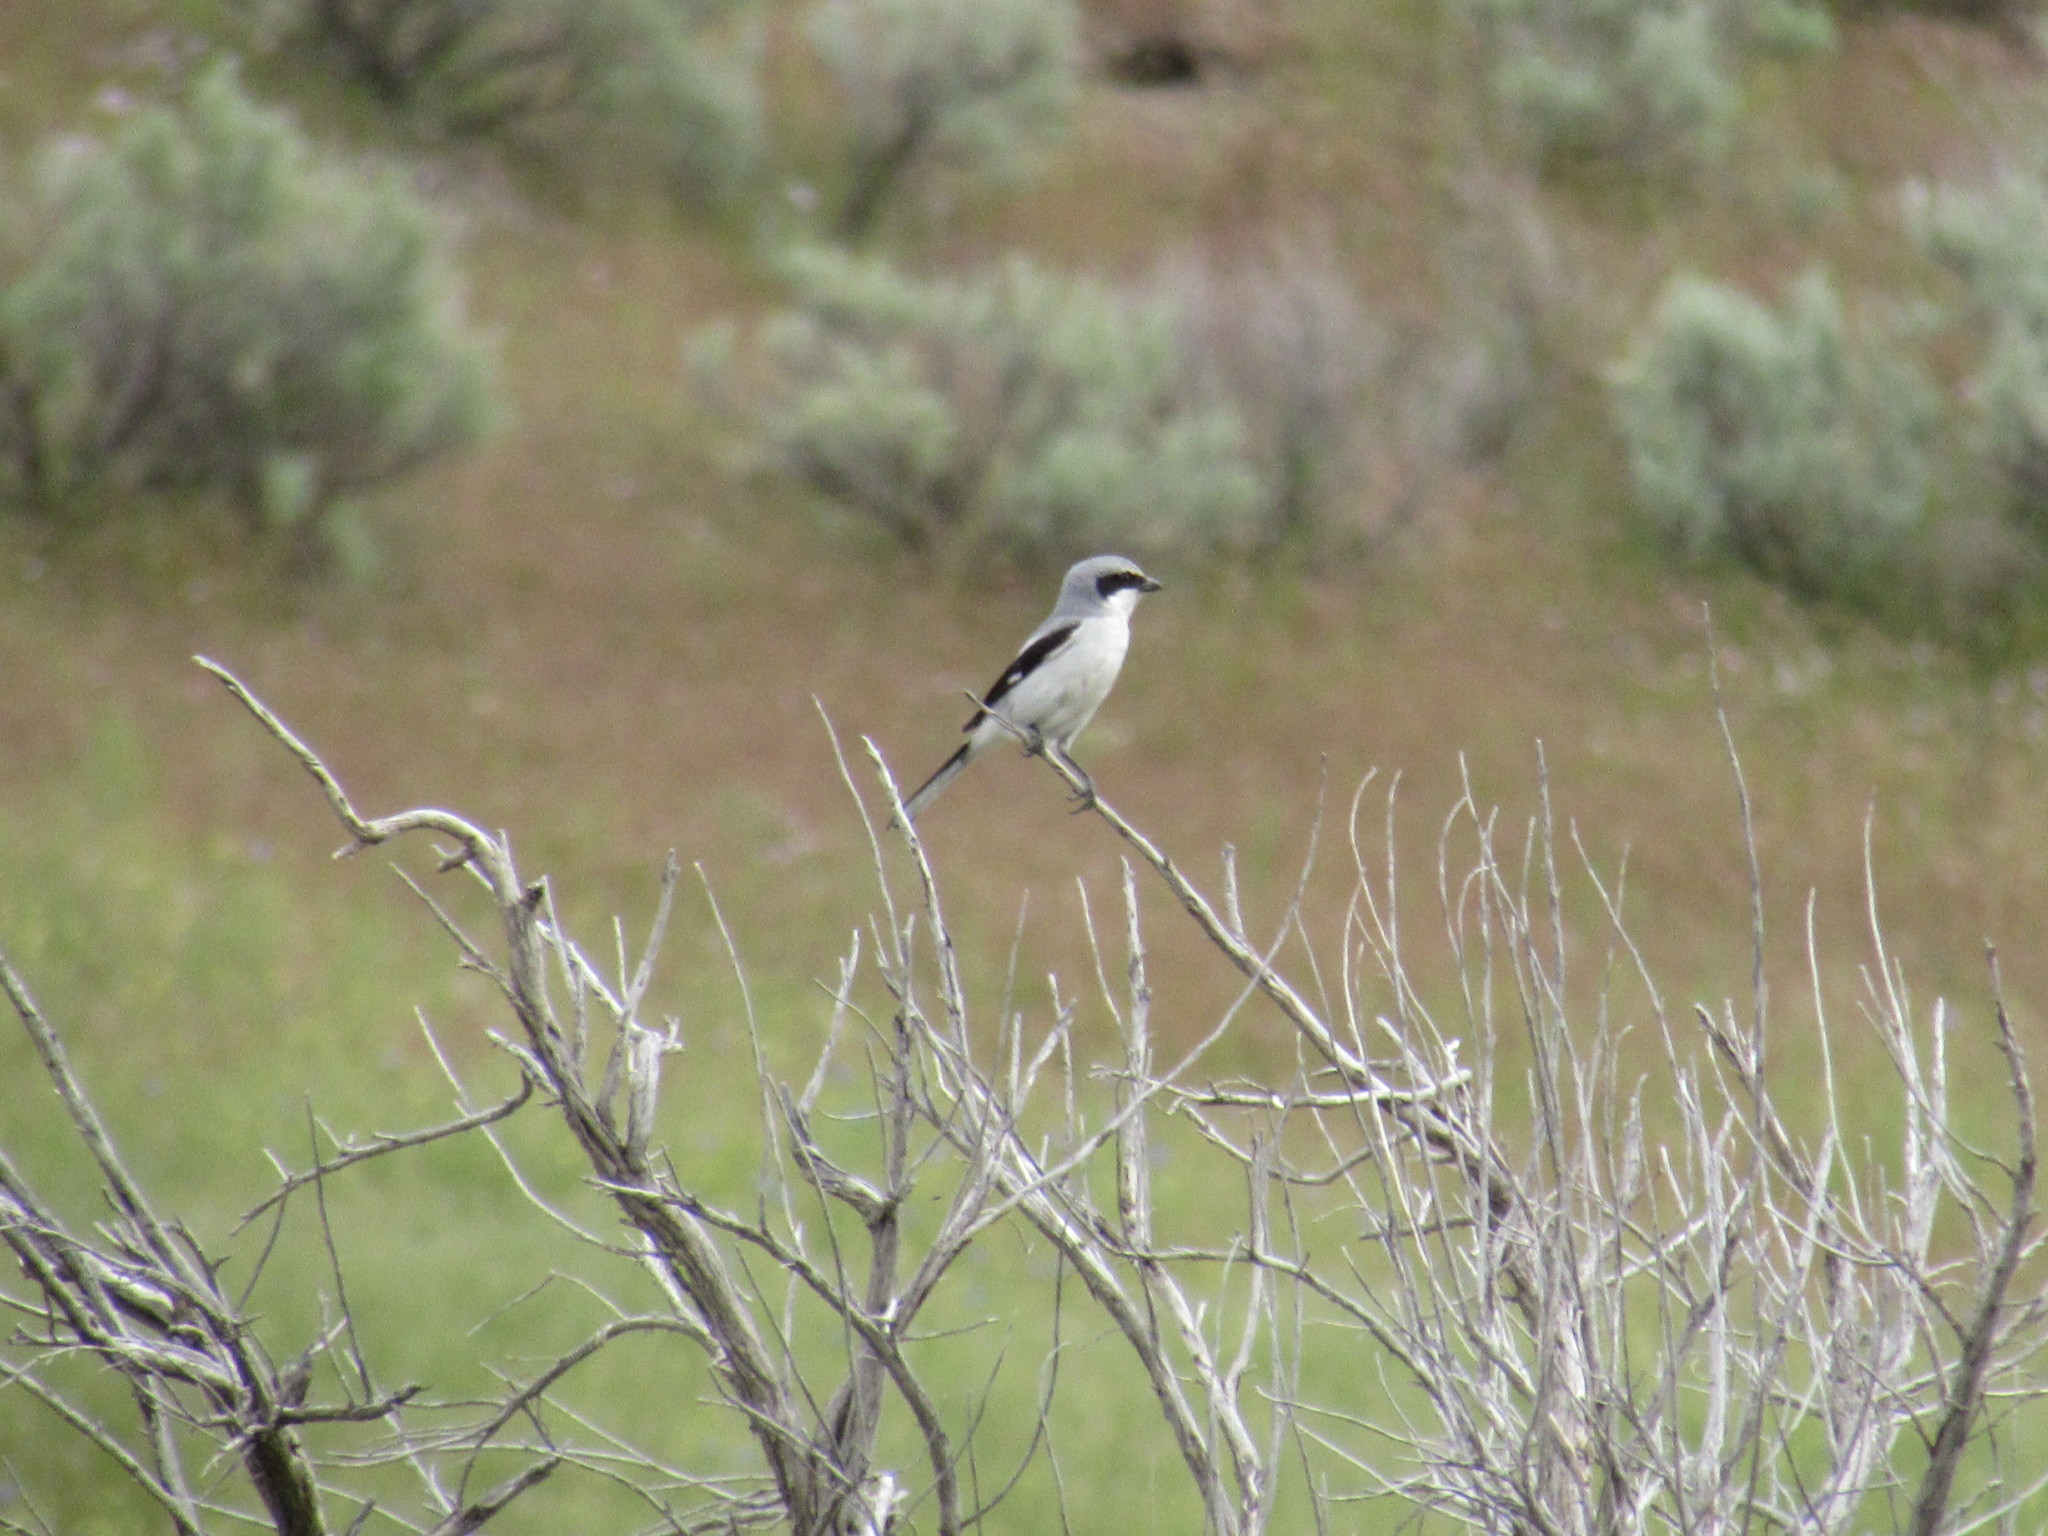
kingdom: Animalia
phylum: Chordata
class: Aves
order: Passeriformes
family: Laniidae
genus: Lanius
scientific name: Lanius ludovicianus
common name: Loggerhead shrike
